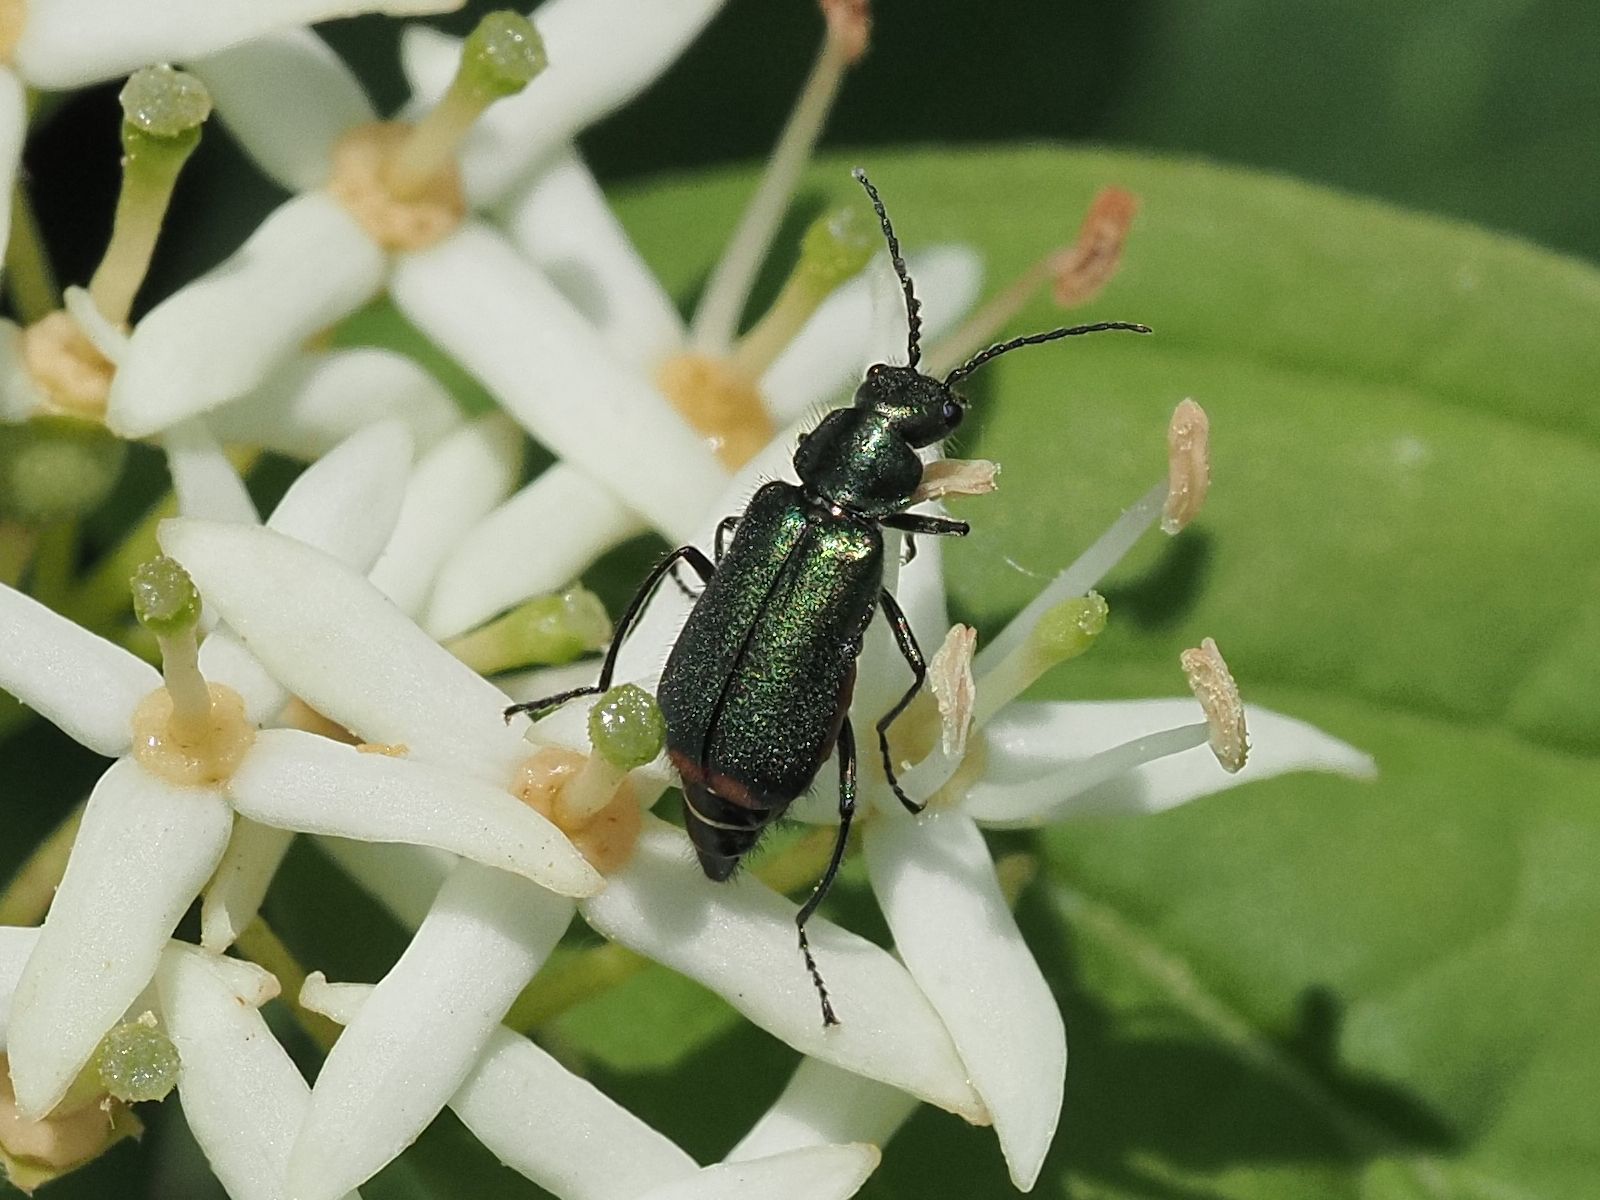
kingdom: Animalia
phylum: Arthropoda
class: Insecta
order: Coleoptera
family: Melyridae
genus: Malachius
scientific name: Malachius bipustulatus
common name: Malachite beetle
